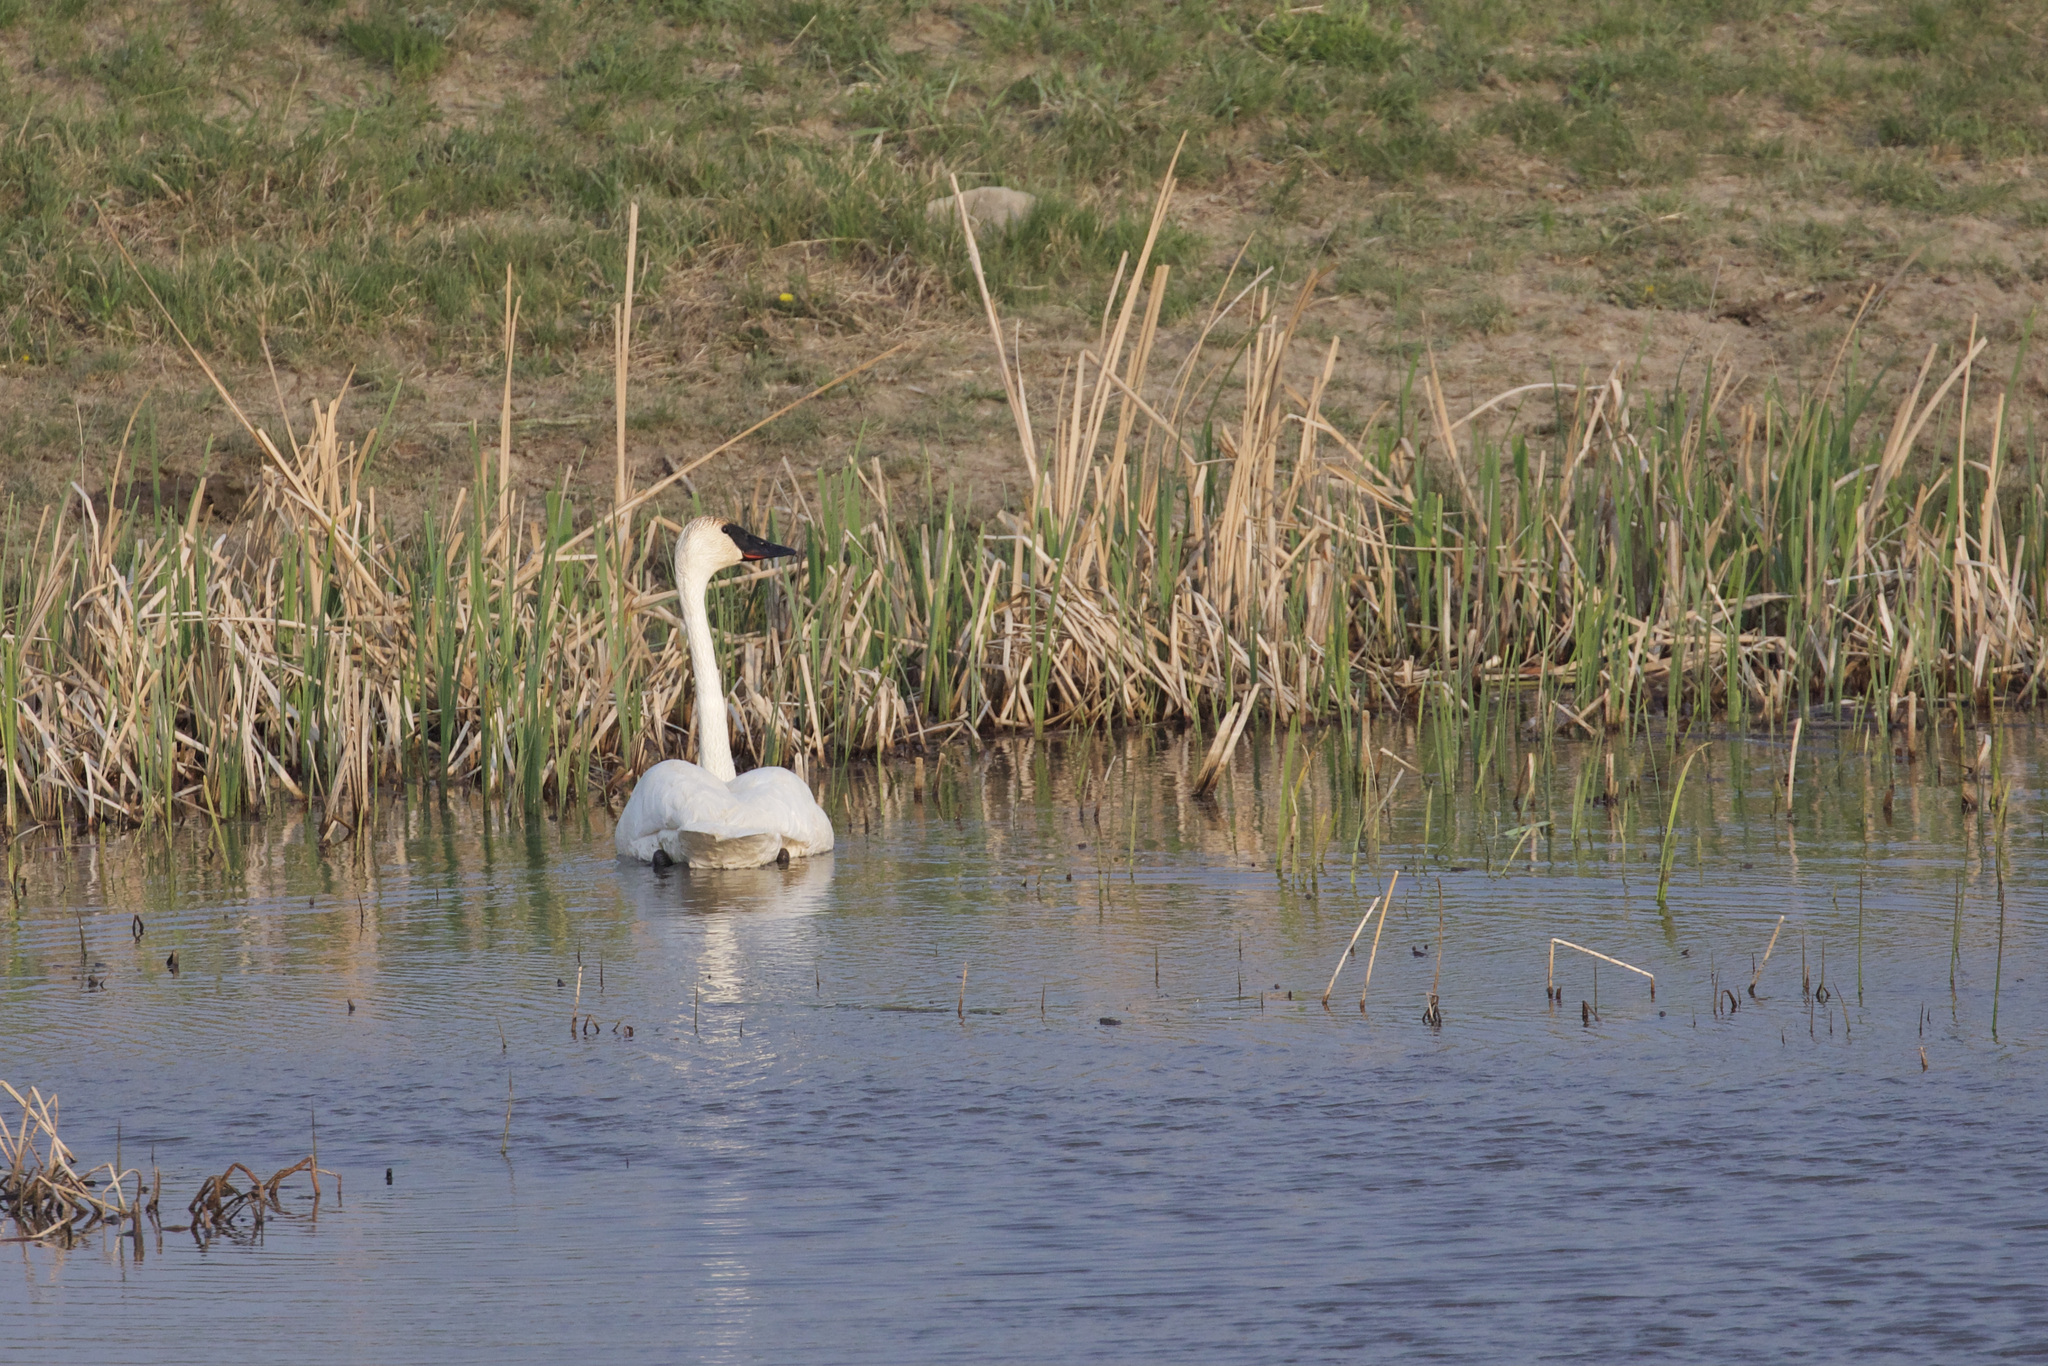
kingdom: Animalia
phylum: Chordata
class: Aves
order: Anseriformes
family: Anatidae
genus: Cygnus
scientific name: Cygnus buccinator
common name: Trumpeter swan
